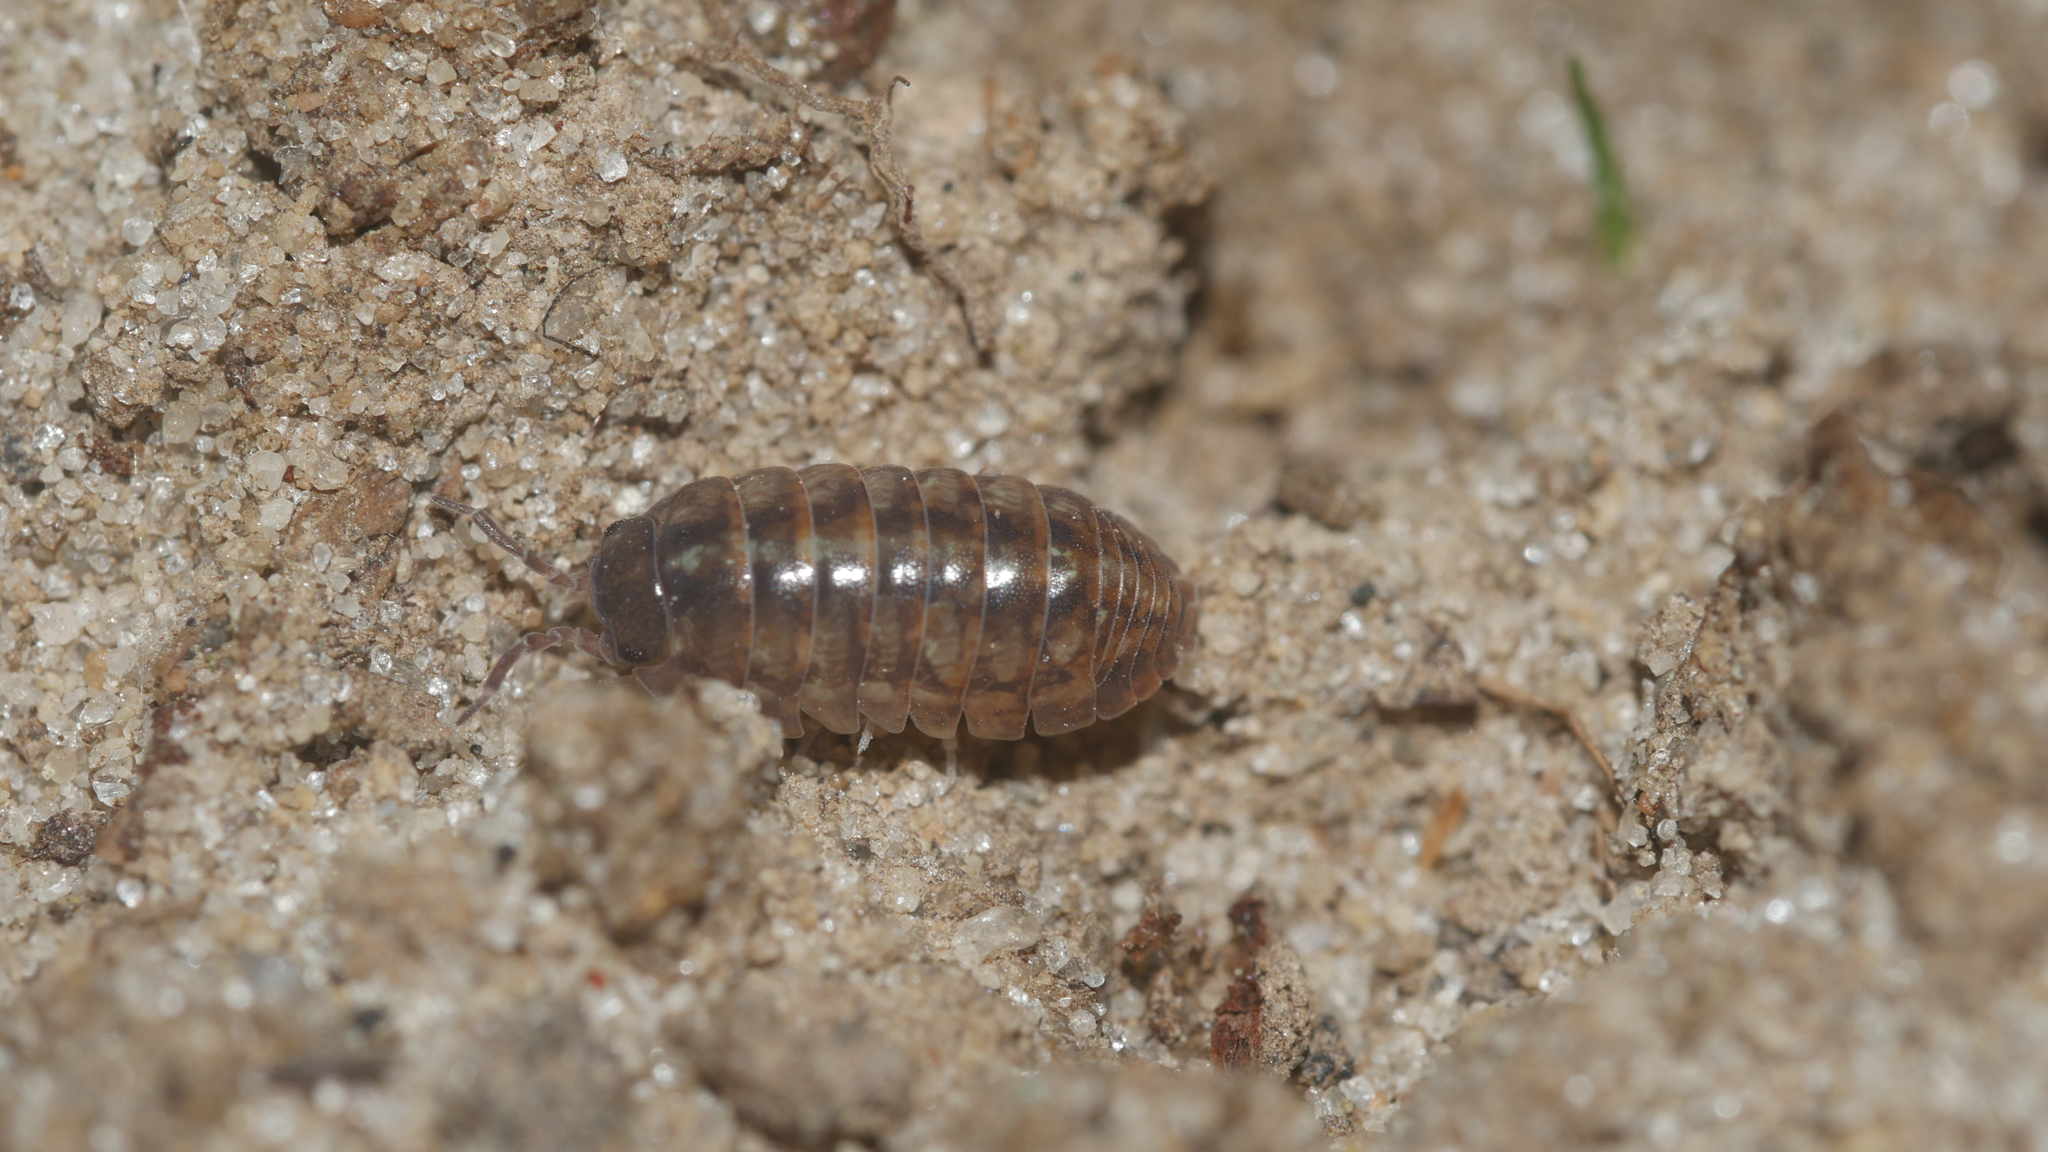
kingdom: Animalia
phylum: Arthropoda
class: Malacostraca
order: Isopoda
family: Armadillidiidae
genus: Armadillidium
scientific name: Armadillidium vulgare
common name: Common pill woodlouse
